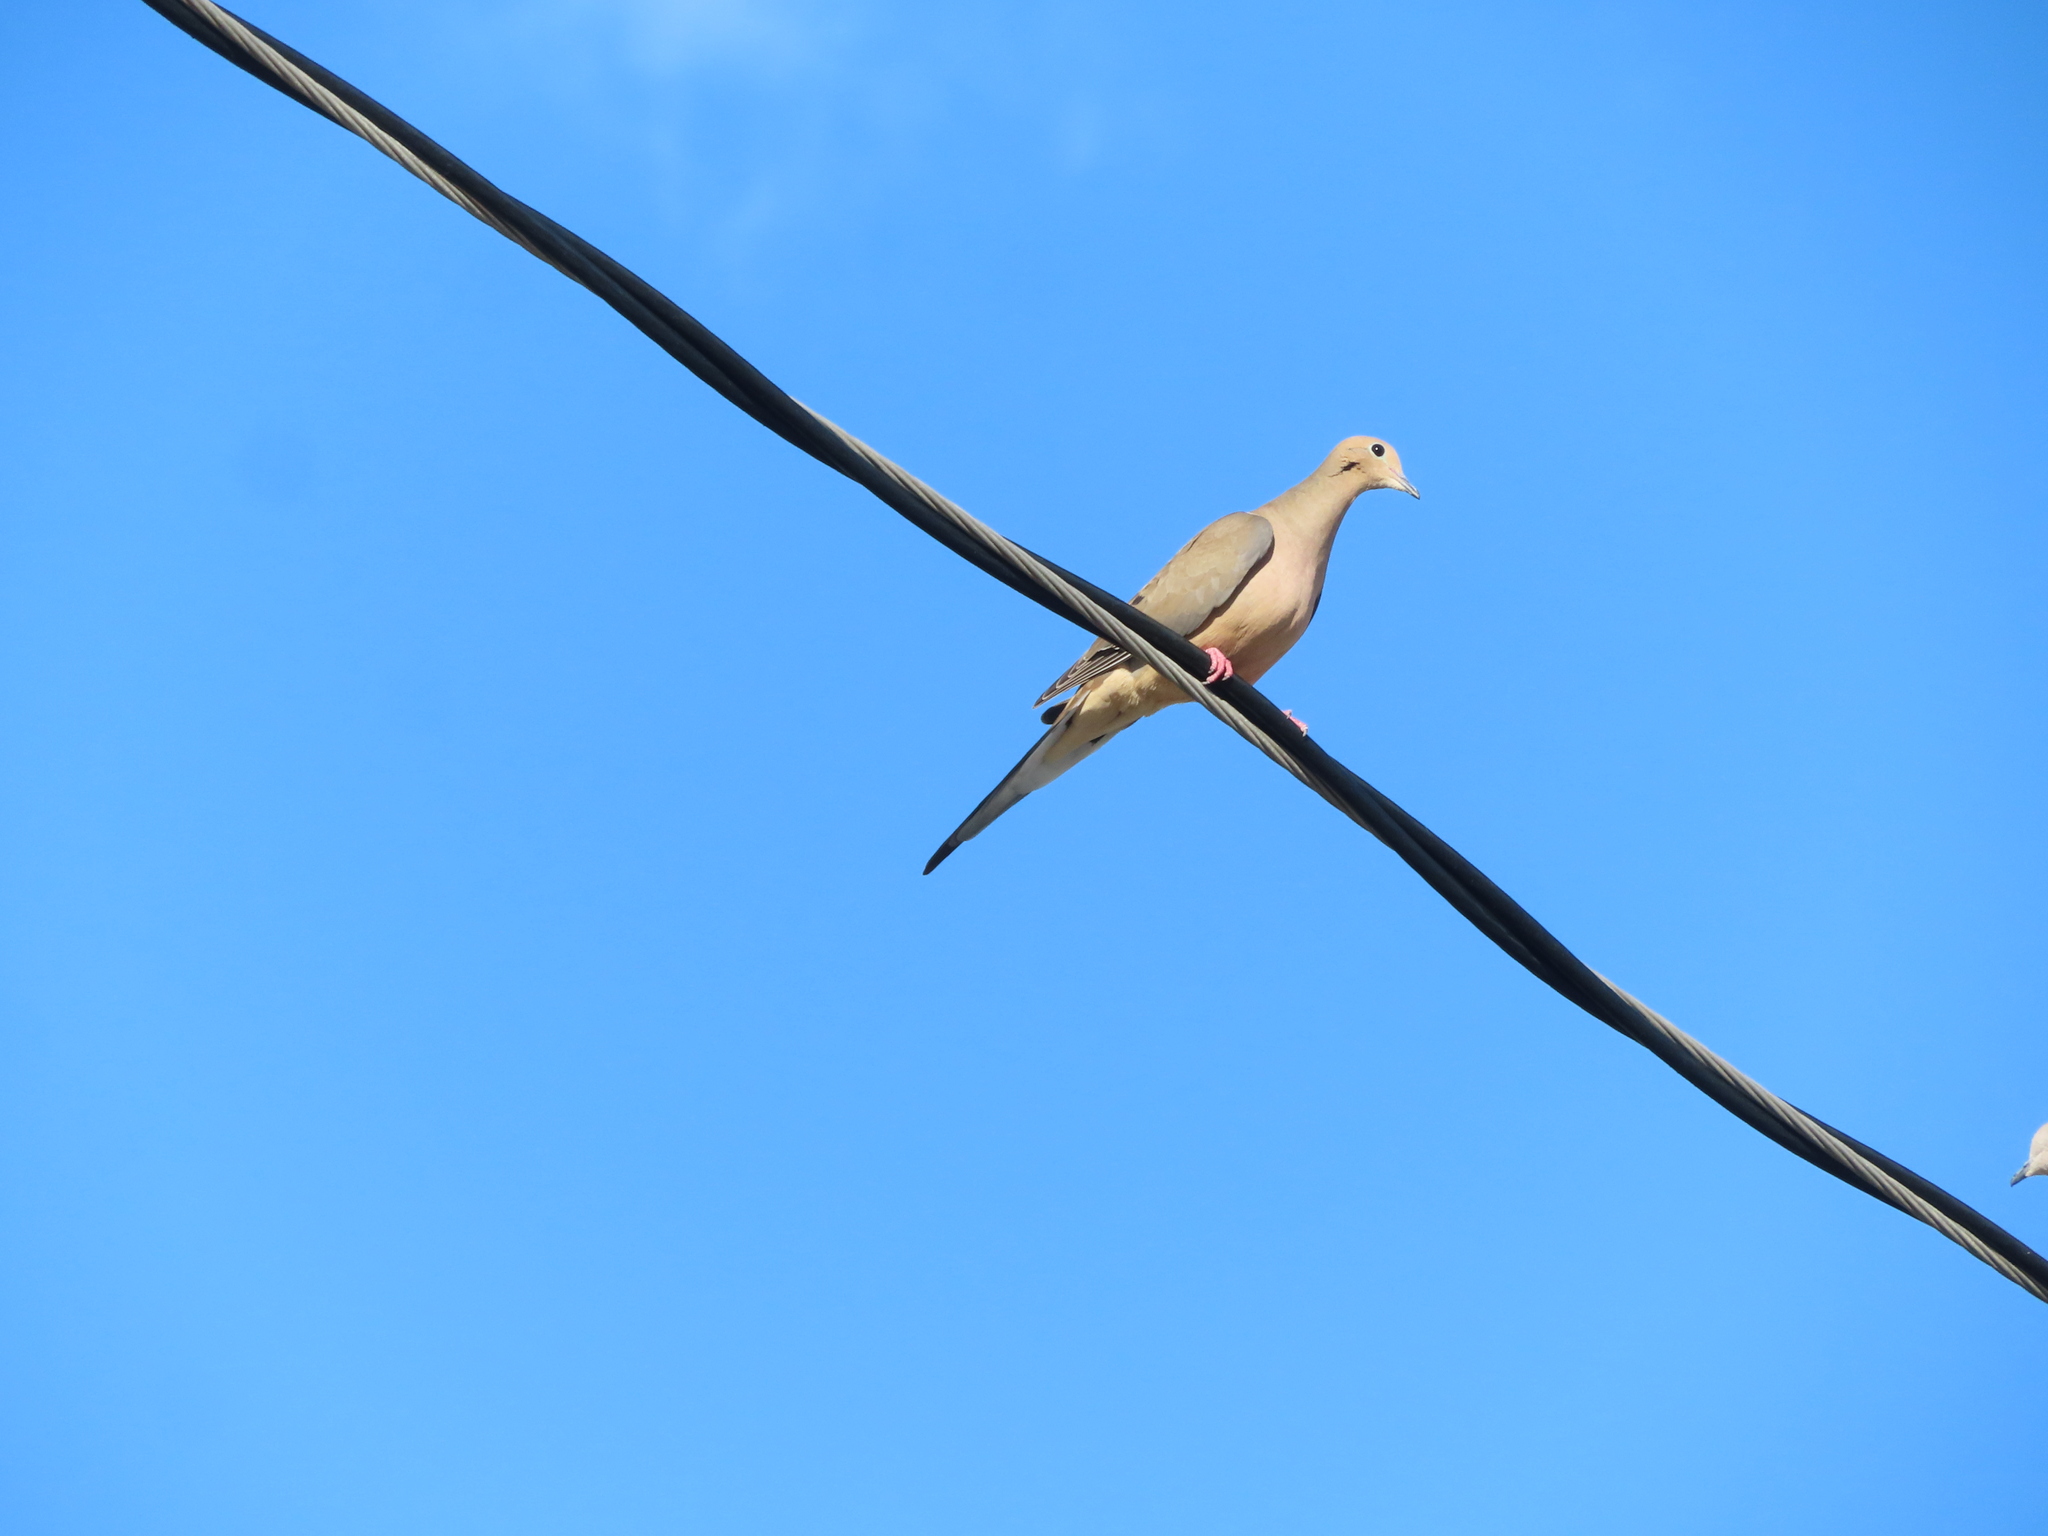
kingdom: Animalia
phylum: Chordata
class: Aves
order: Columbiformes
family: Columbidae
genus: Zenaida
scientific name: Zenaida macroura
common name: Mourning dove
